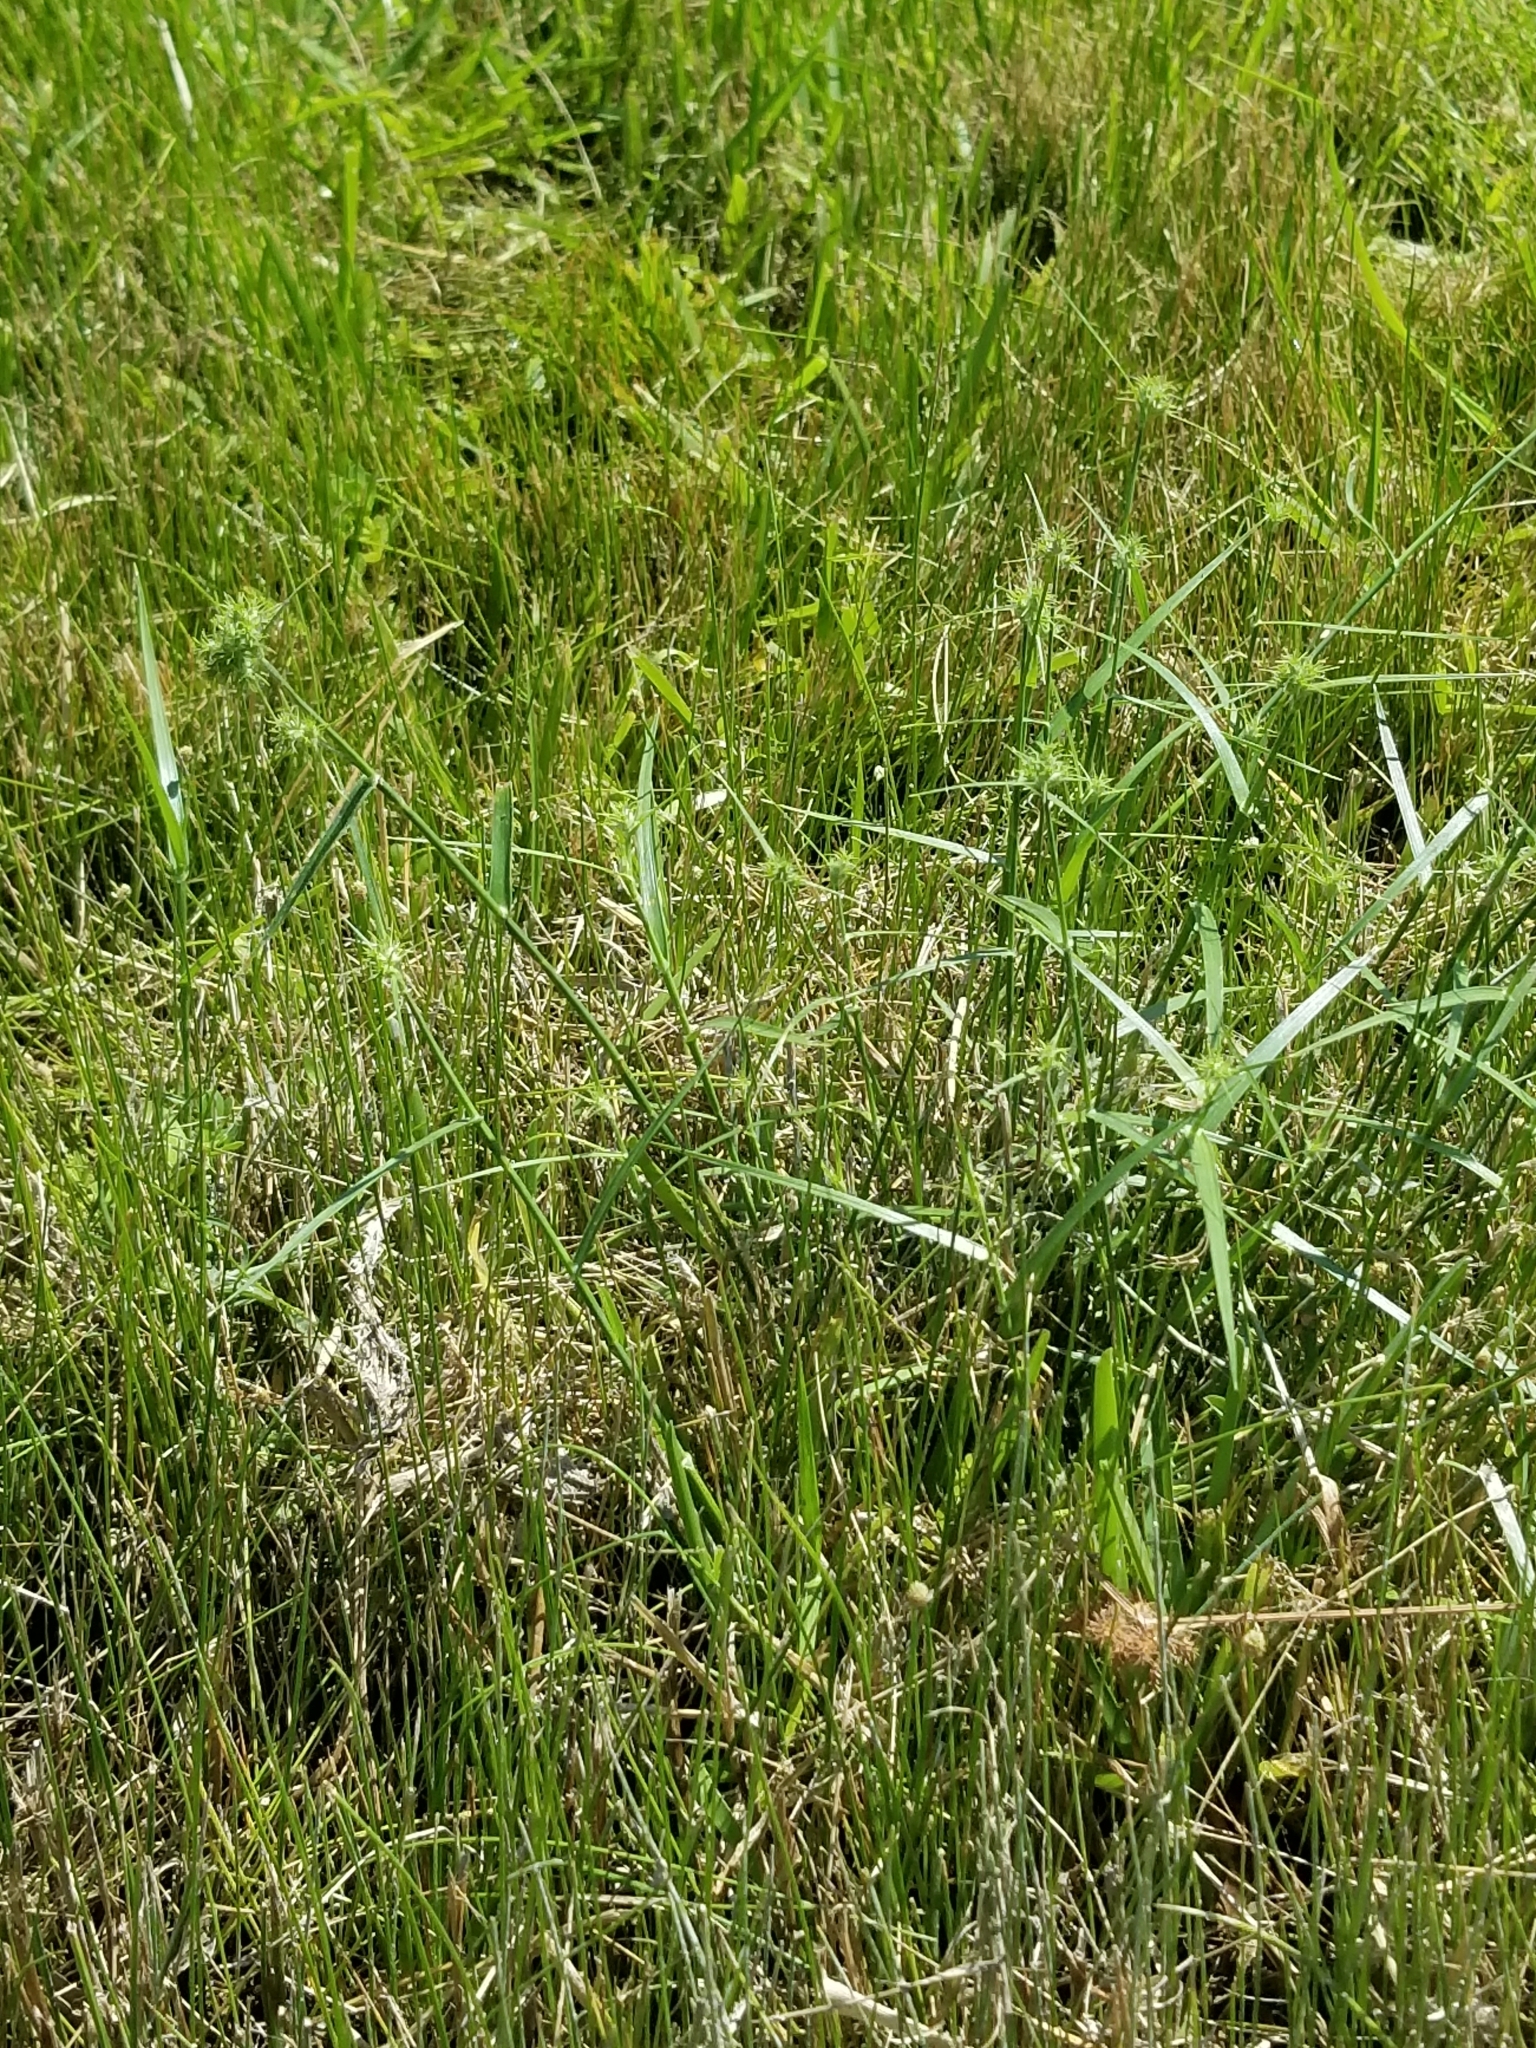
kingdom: Plantae
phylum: Tracheophyta
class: Liliopsida
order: Poales
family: Cyperaceae
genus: Fuirena
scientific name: Fuirena simplex
